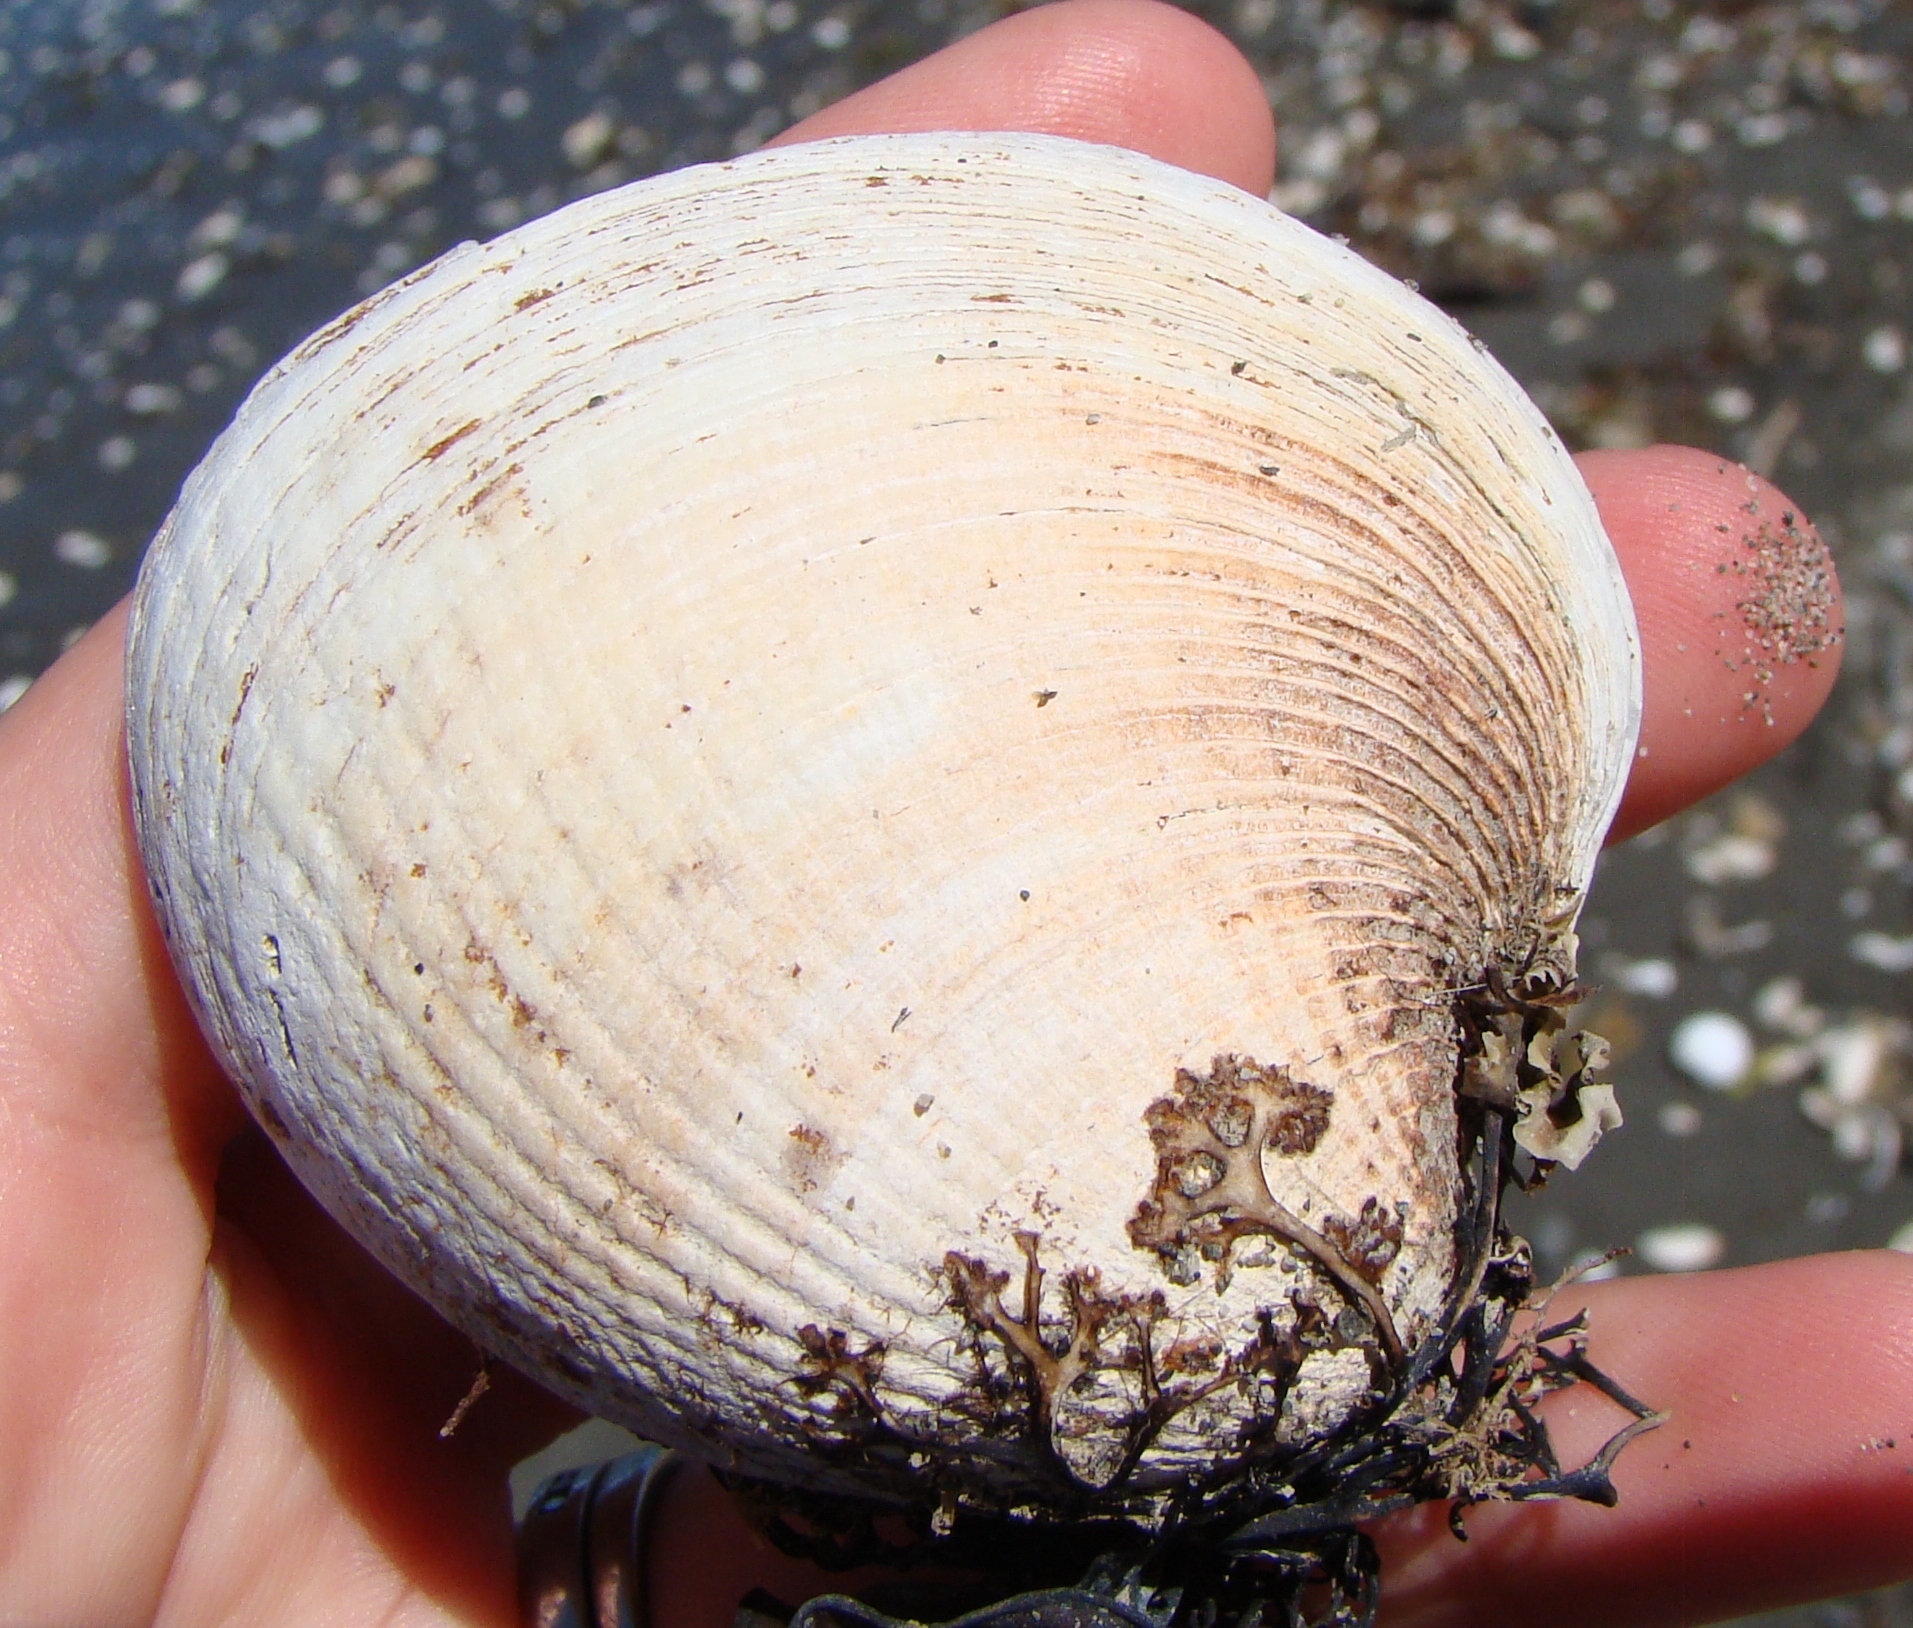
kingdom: Animalia
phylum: Mollusca
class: Bivalvia
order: Venerida
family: Veneridae
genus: Austrovenus
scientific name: Austrovenus stutchburyi
